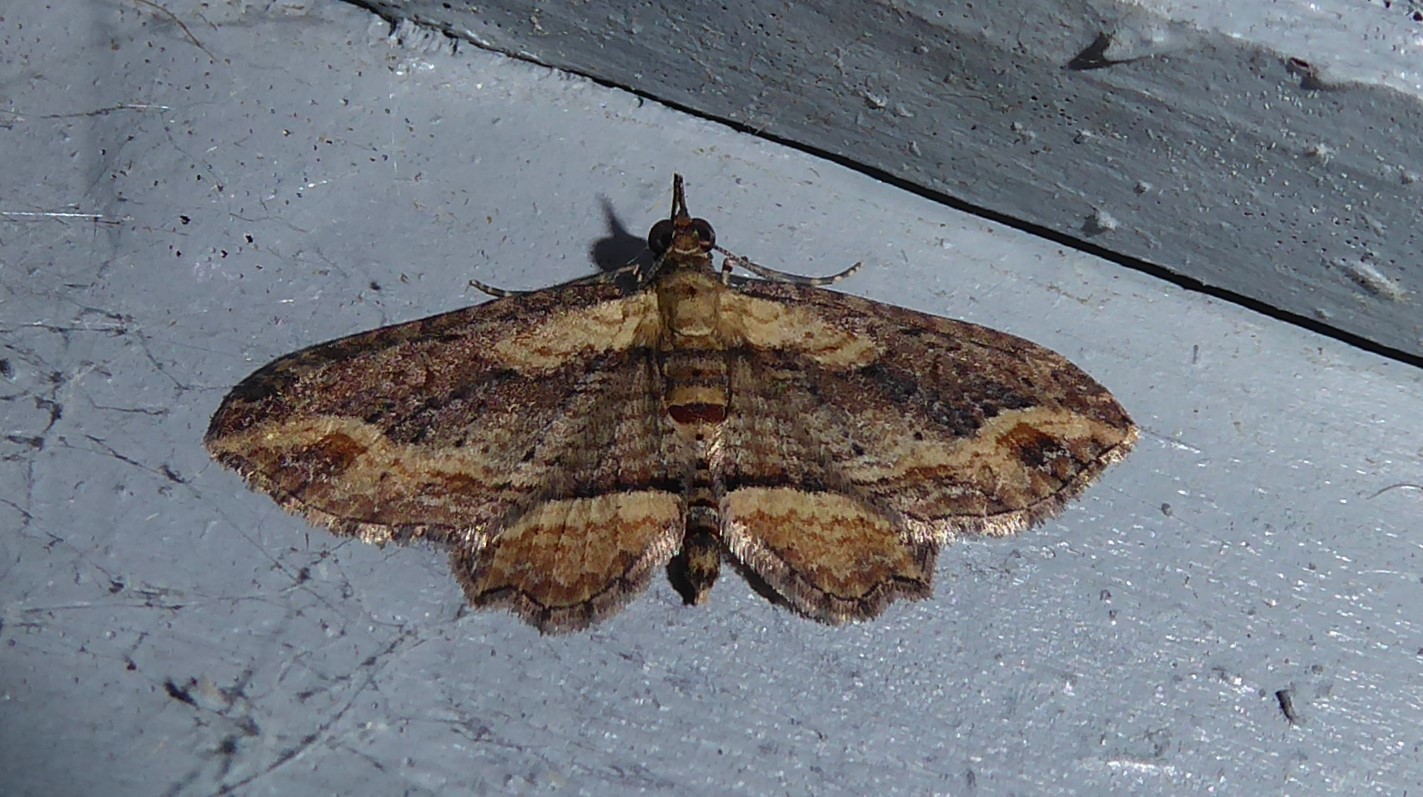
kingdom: Animalia
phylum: Arthropoda
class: Insecta
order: Lepidoptera
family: Geometridae
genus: Chloroclystis
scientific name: Chloroclystis filata
